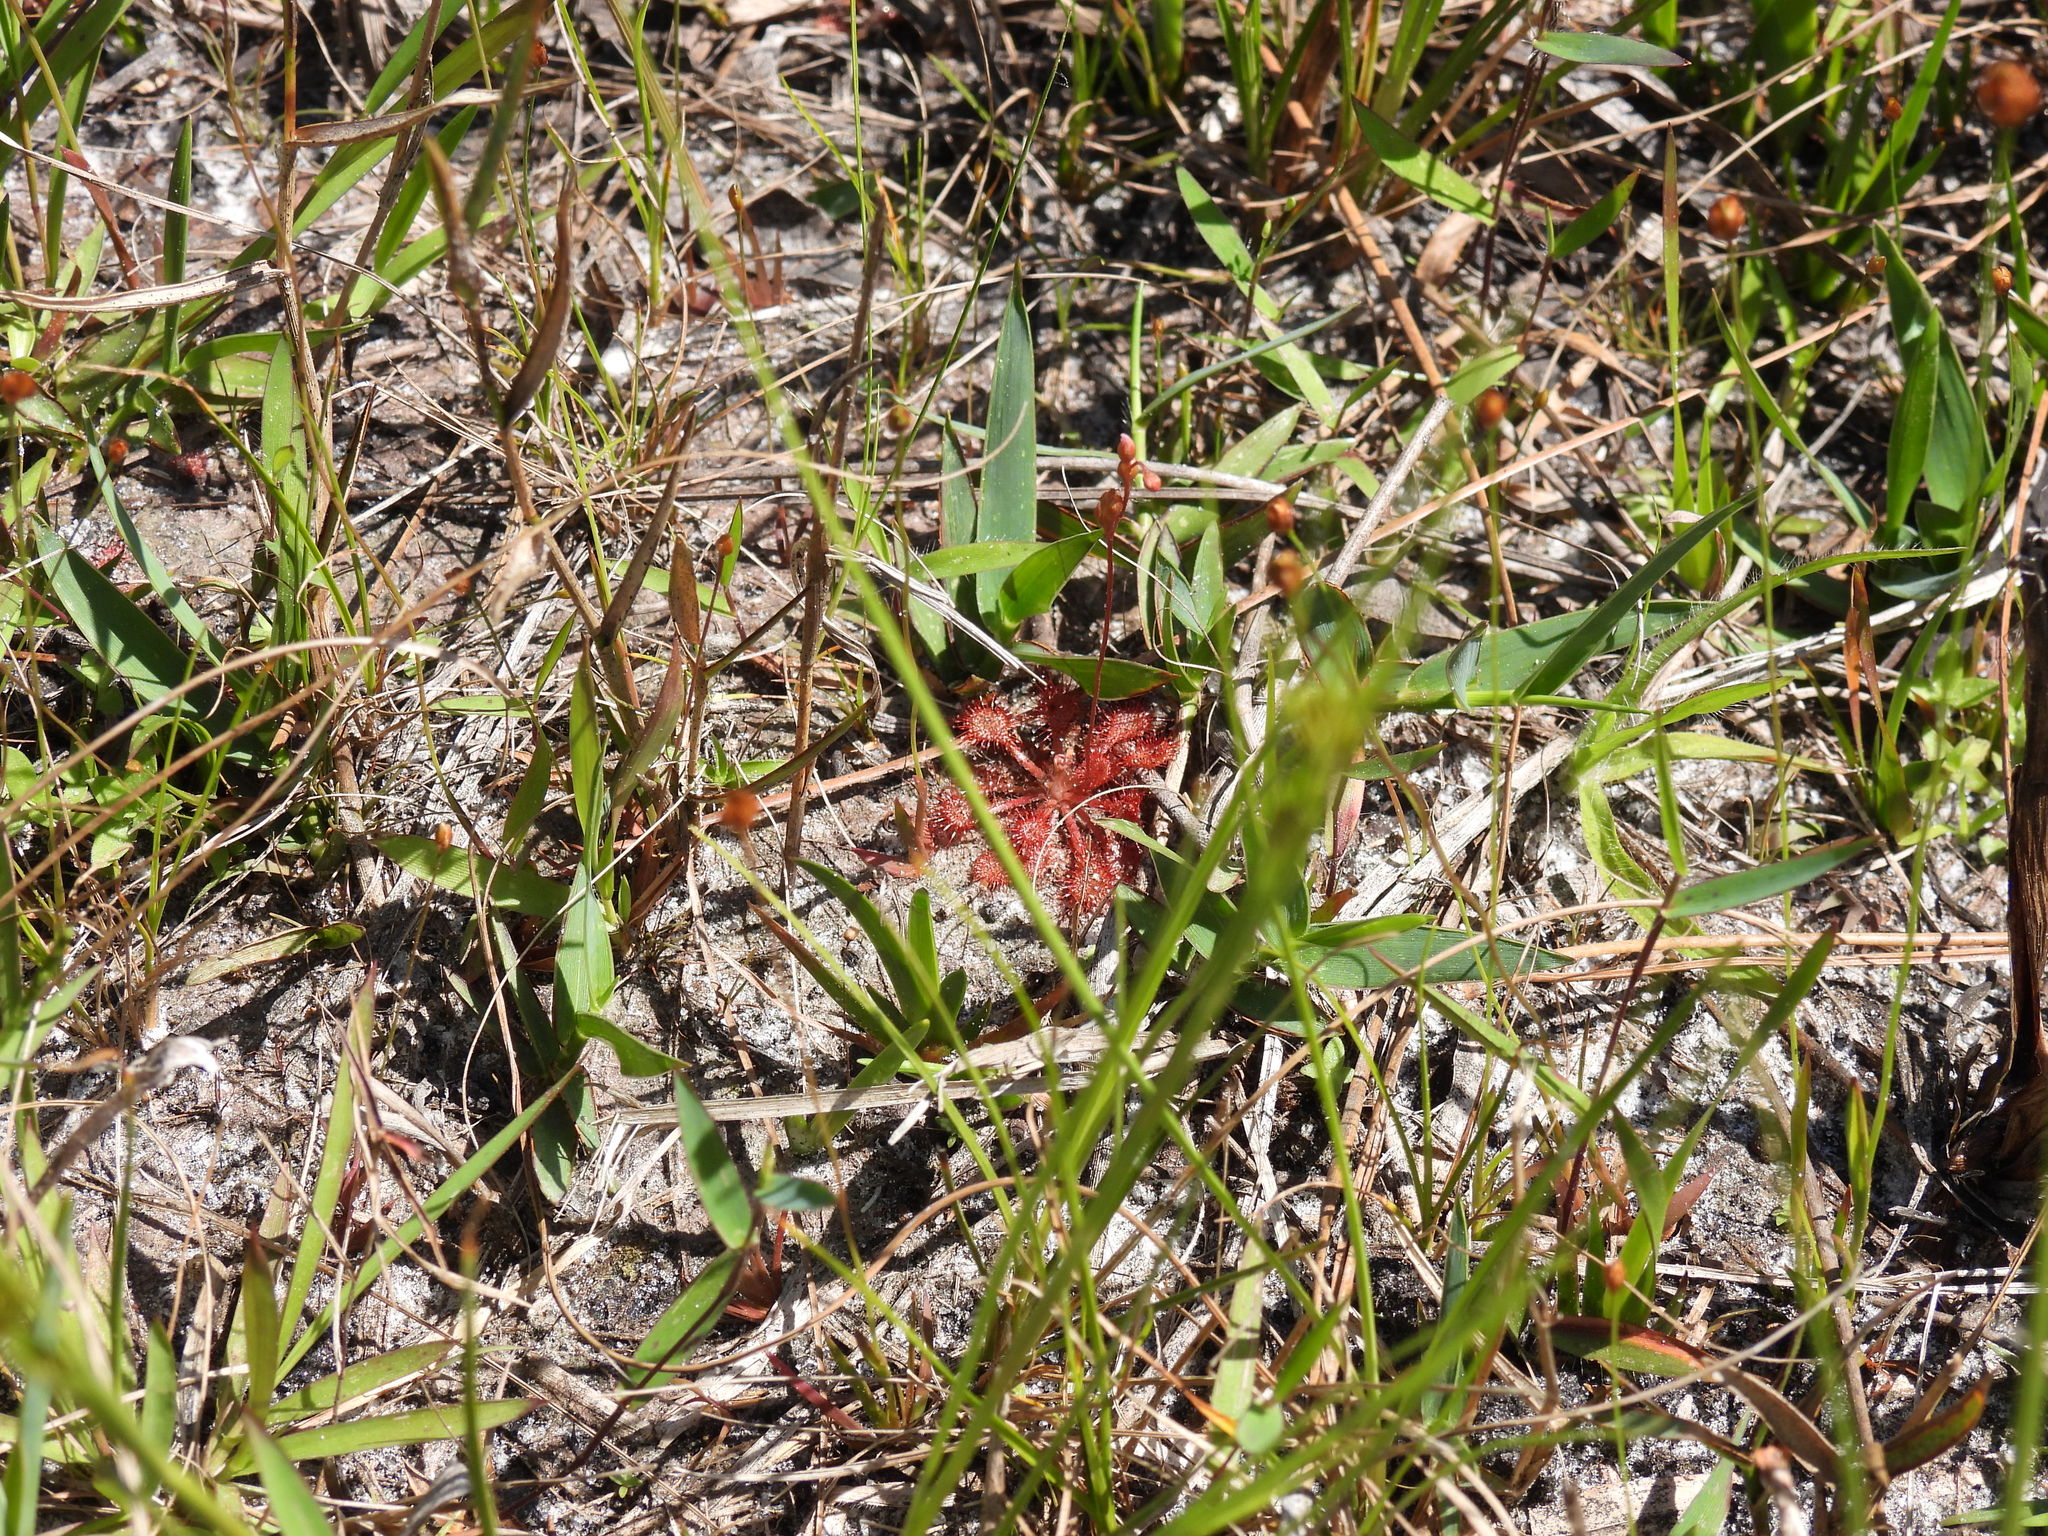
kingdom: Plantae
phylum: Tracheophyta
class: Magnoliopsida
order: Caryophyllales
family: Droseraceae
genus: Drosera
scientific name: Drosera capillaris
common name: Pink sundew
